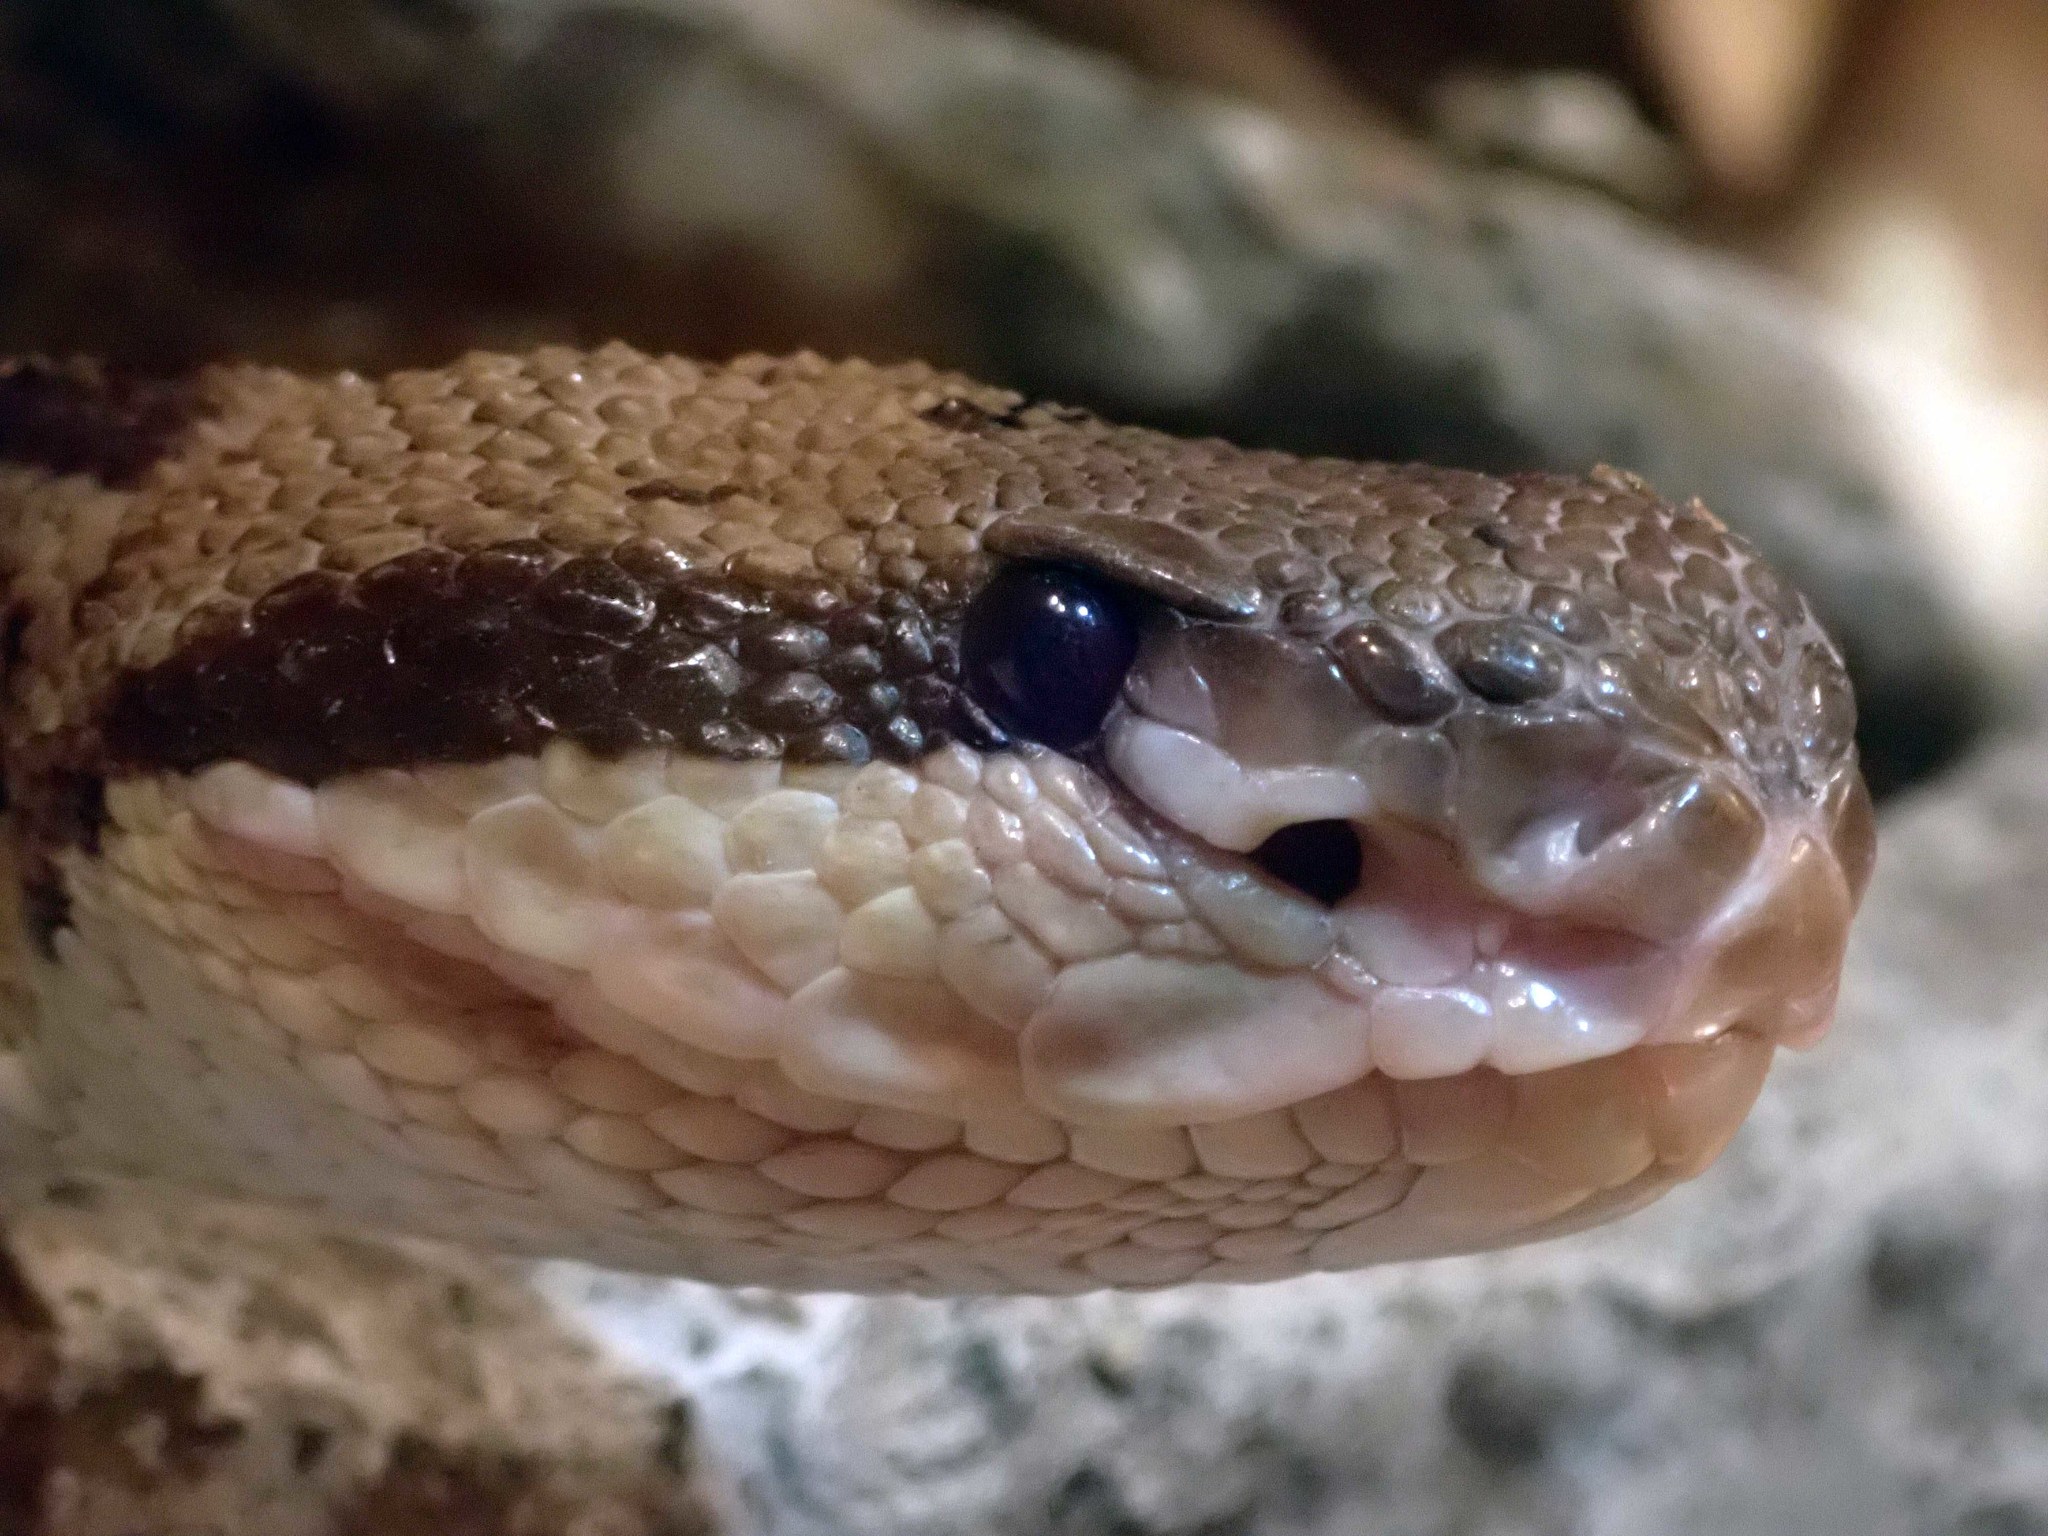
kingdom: Animalia
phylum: Chordata
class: Squamata
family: Viperidae
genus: Lachesis
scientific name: Lachesis stenophrys
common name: Central american bushmaster
